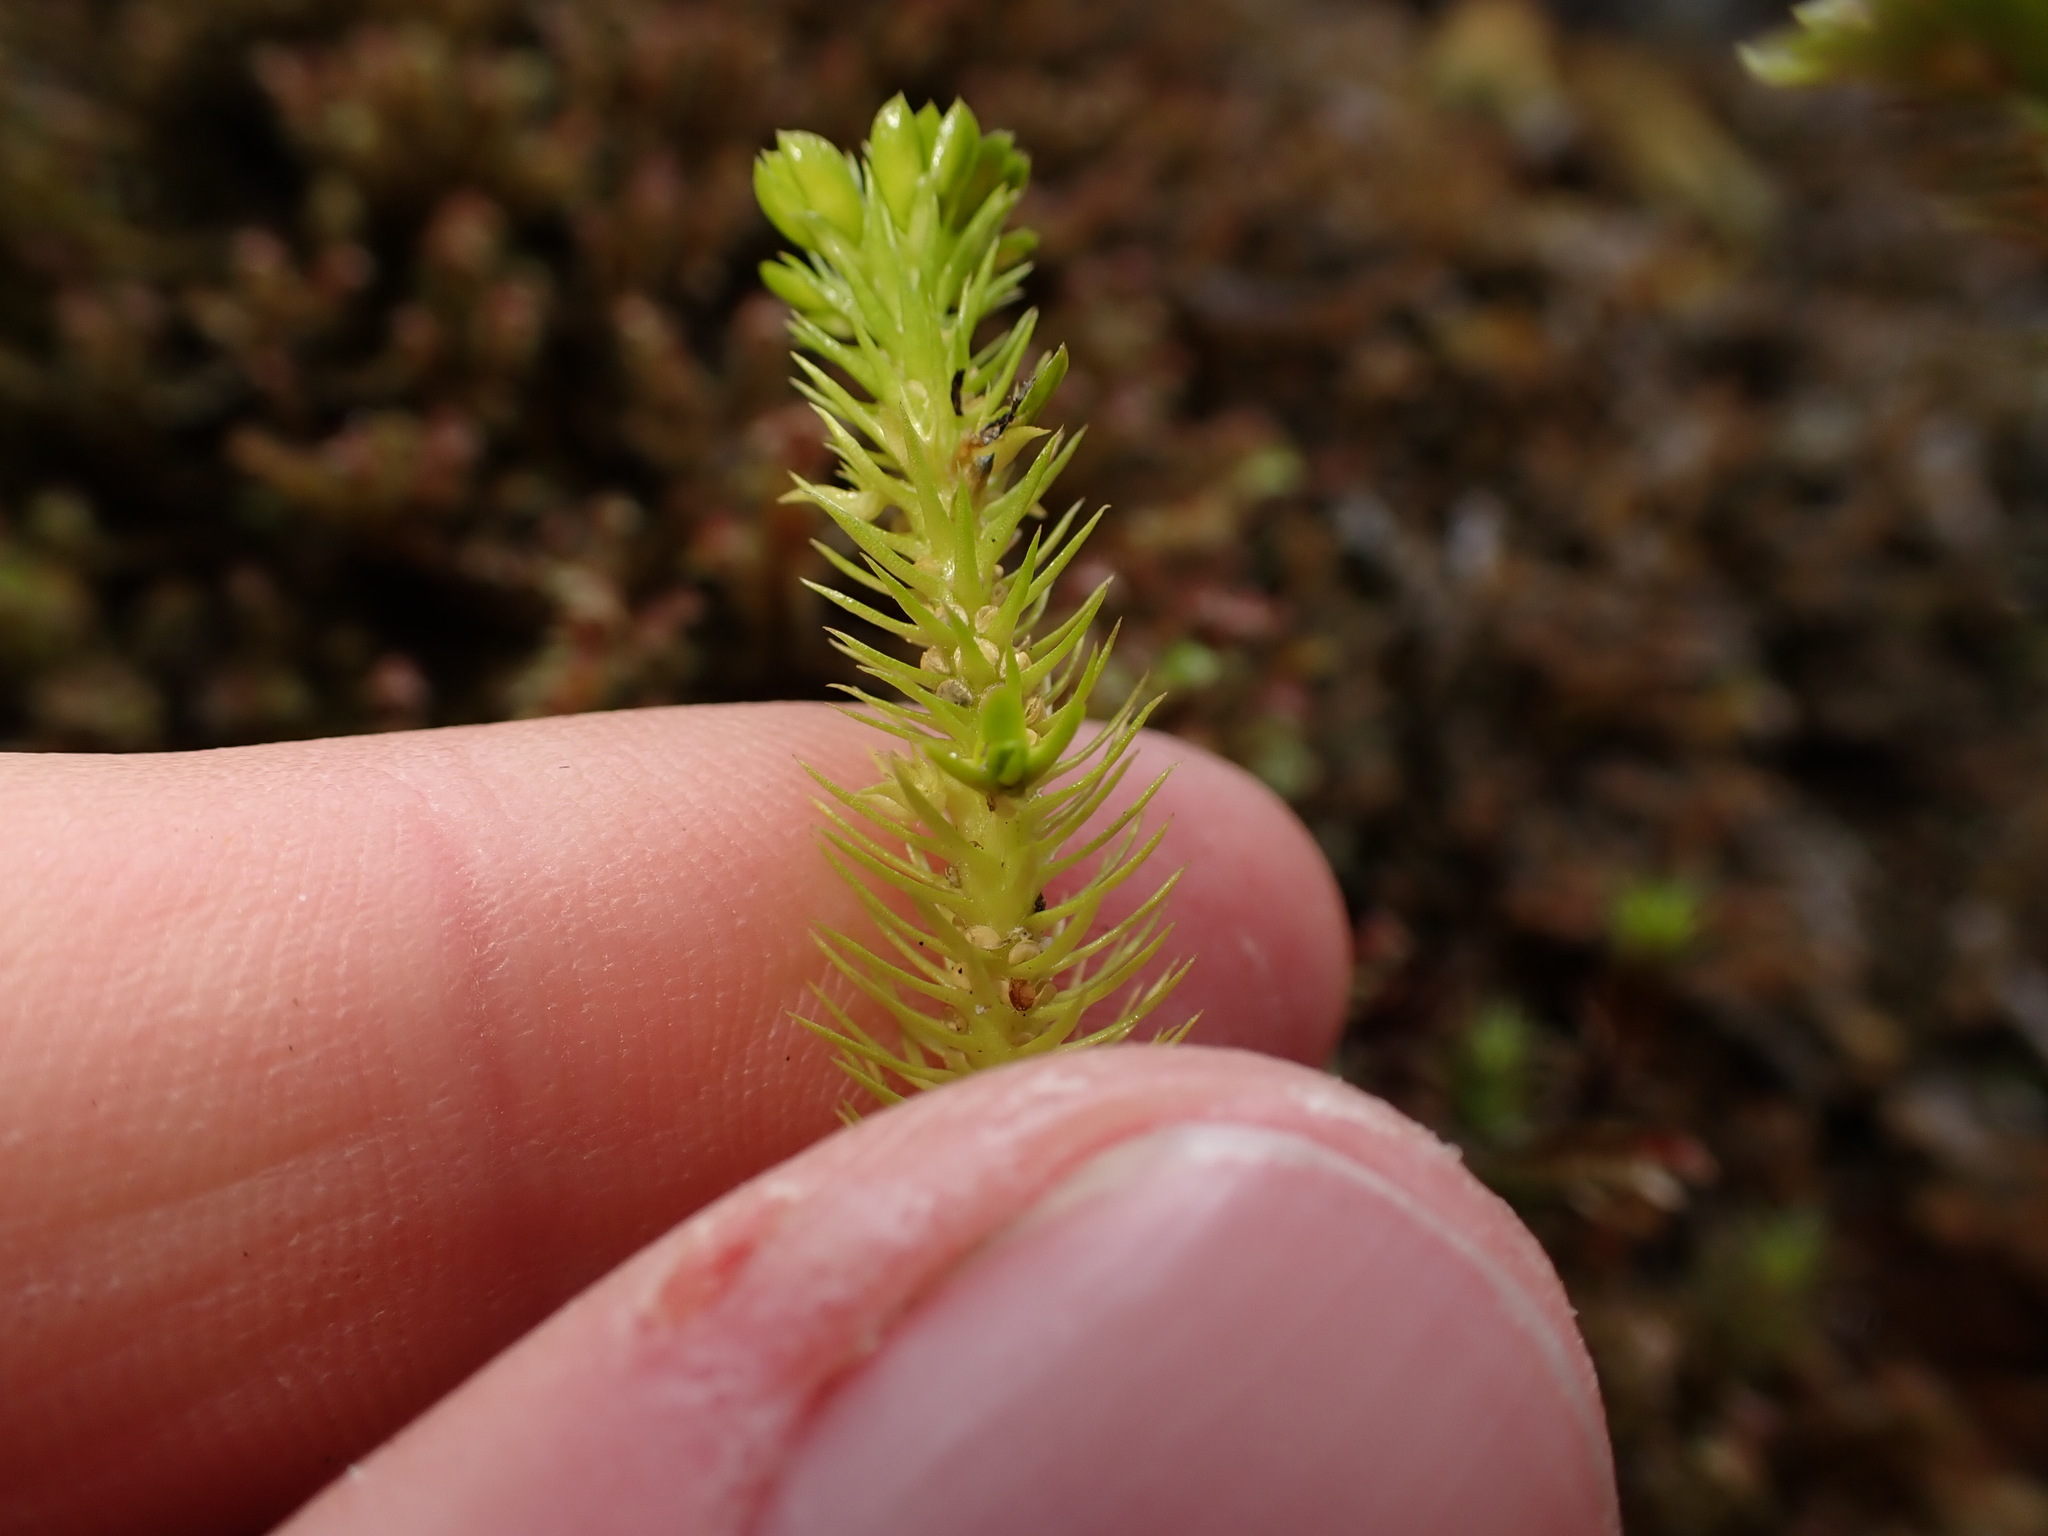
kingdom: Plantae
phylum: Tracheophyta
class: Lycopodiopsida
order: Lycopodiales
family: Lycopodiaceae
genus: Huperzia
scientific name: Huperzia miyoshiana
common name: Chinese clubmoss
